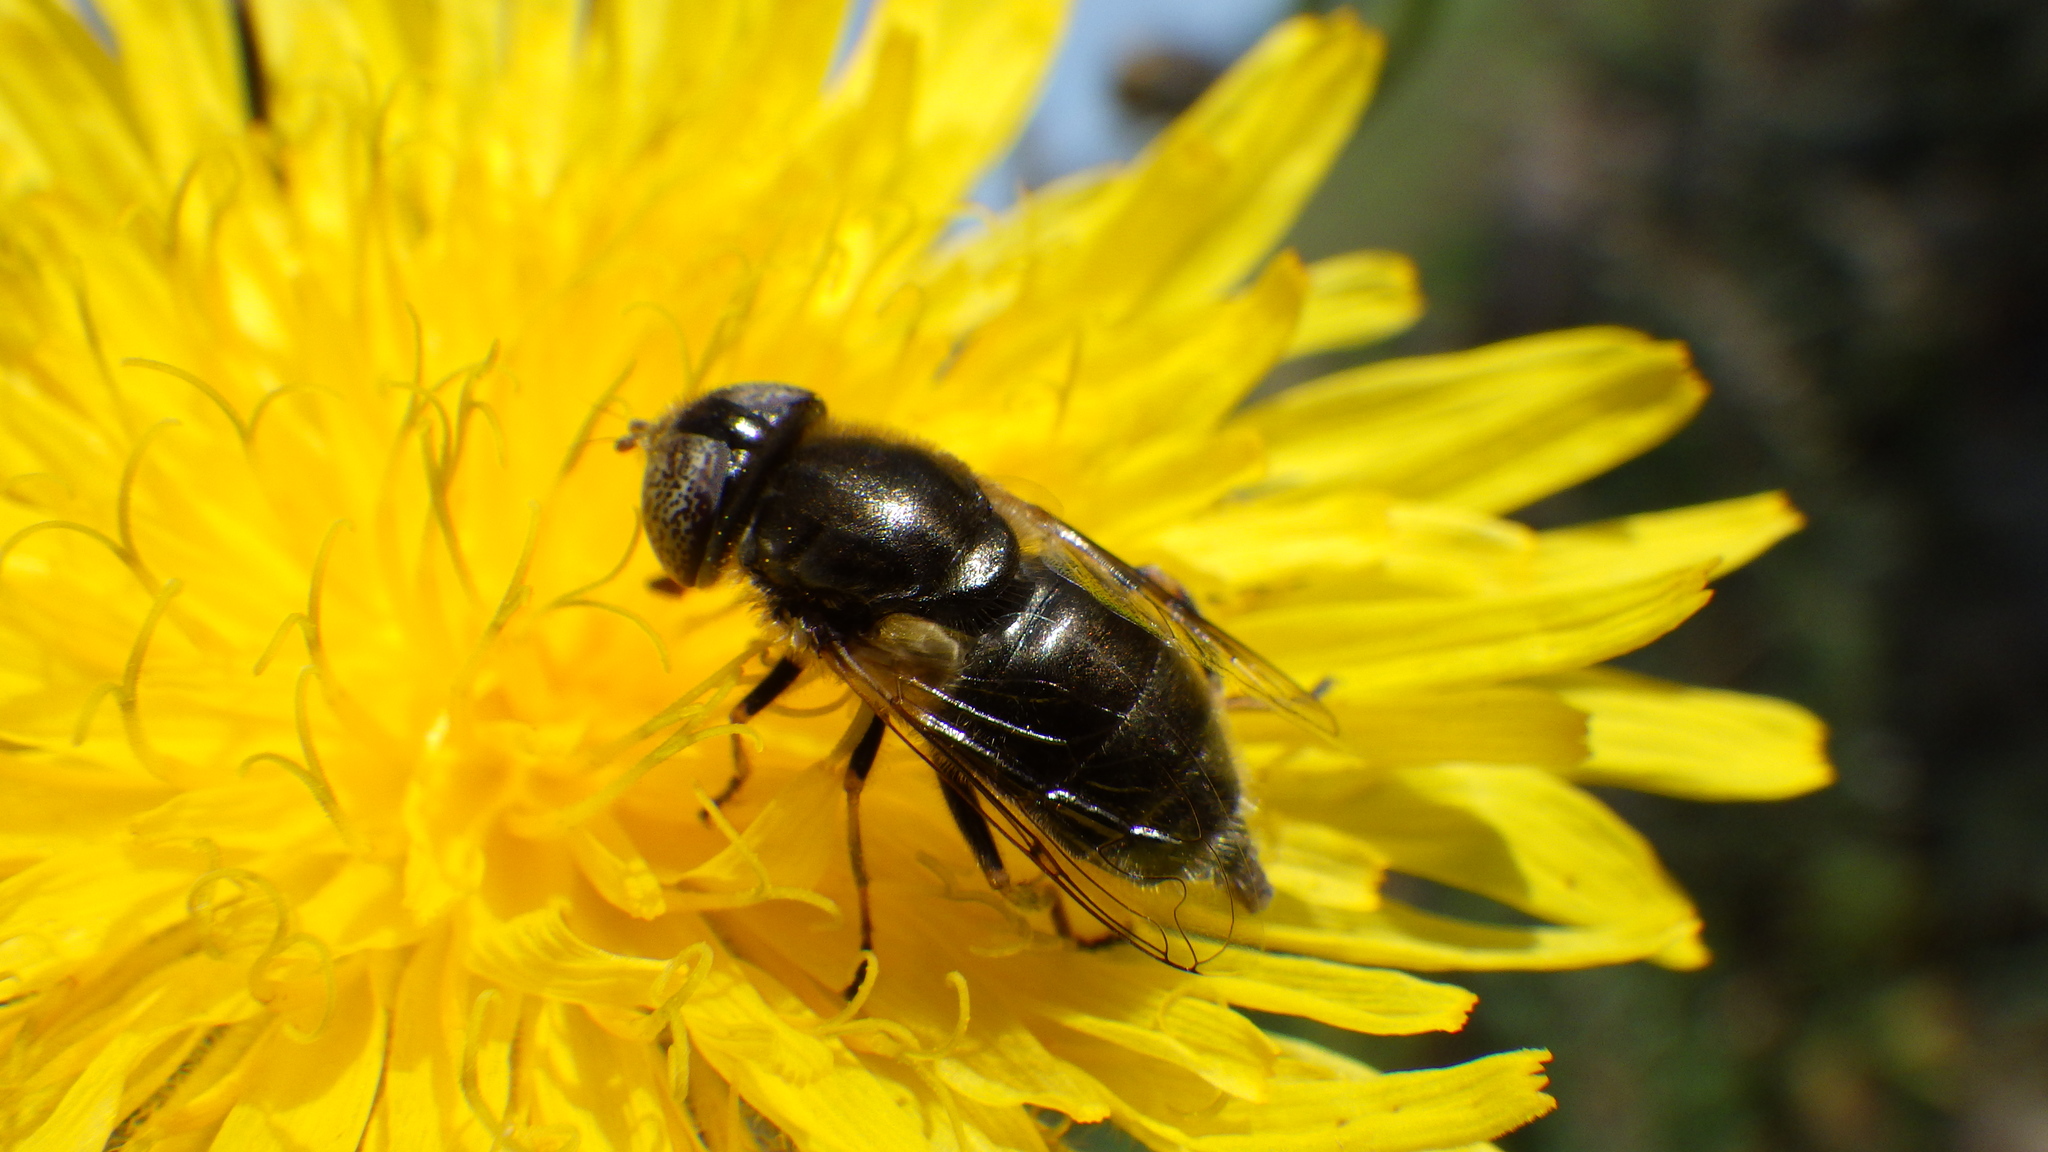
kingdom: Animalia
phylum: Arthropoda
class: Insecta
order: Diptera
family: Syrphidae
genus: Eristalinus
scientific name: Eristalinus aeneus
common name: Syrphid fly
